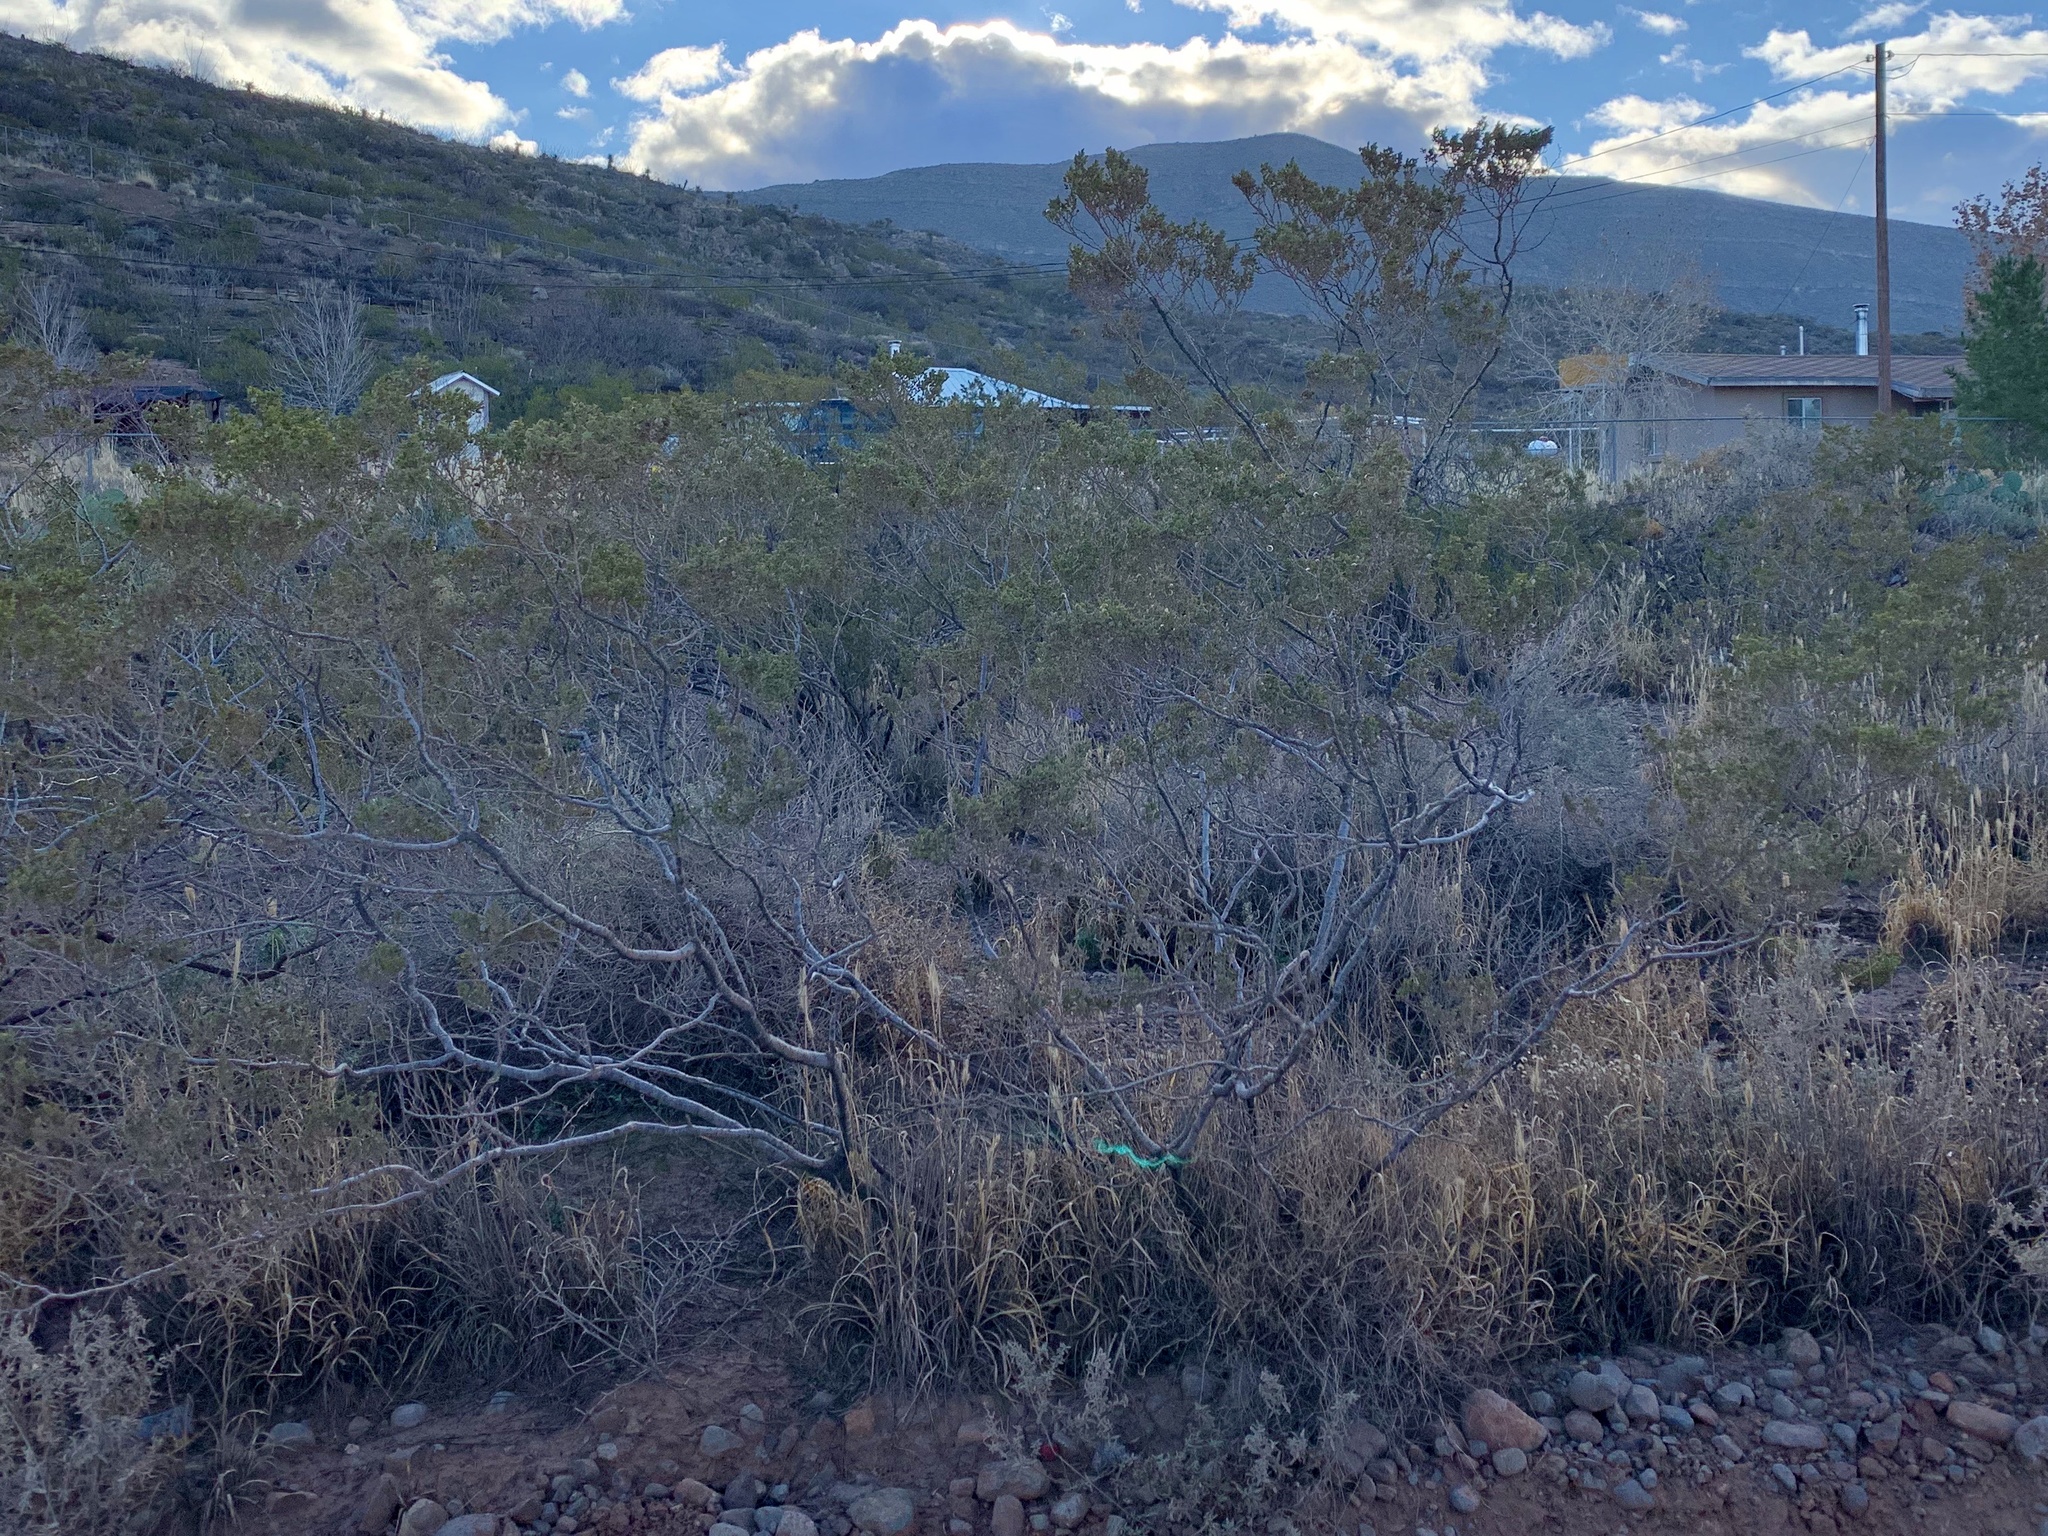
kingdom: Plantae
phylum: Tracheophyta
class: Magnoliopsida
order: Zygophyllales
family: Zygophyllaceae
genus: Larrea
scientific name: Larrea tridentata
